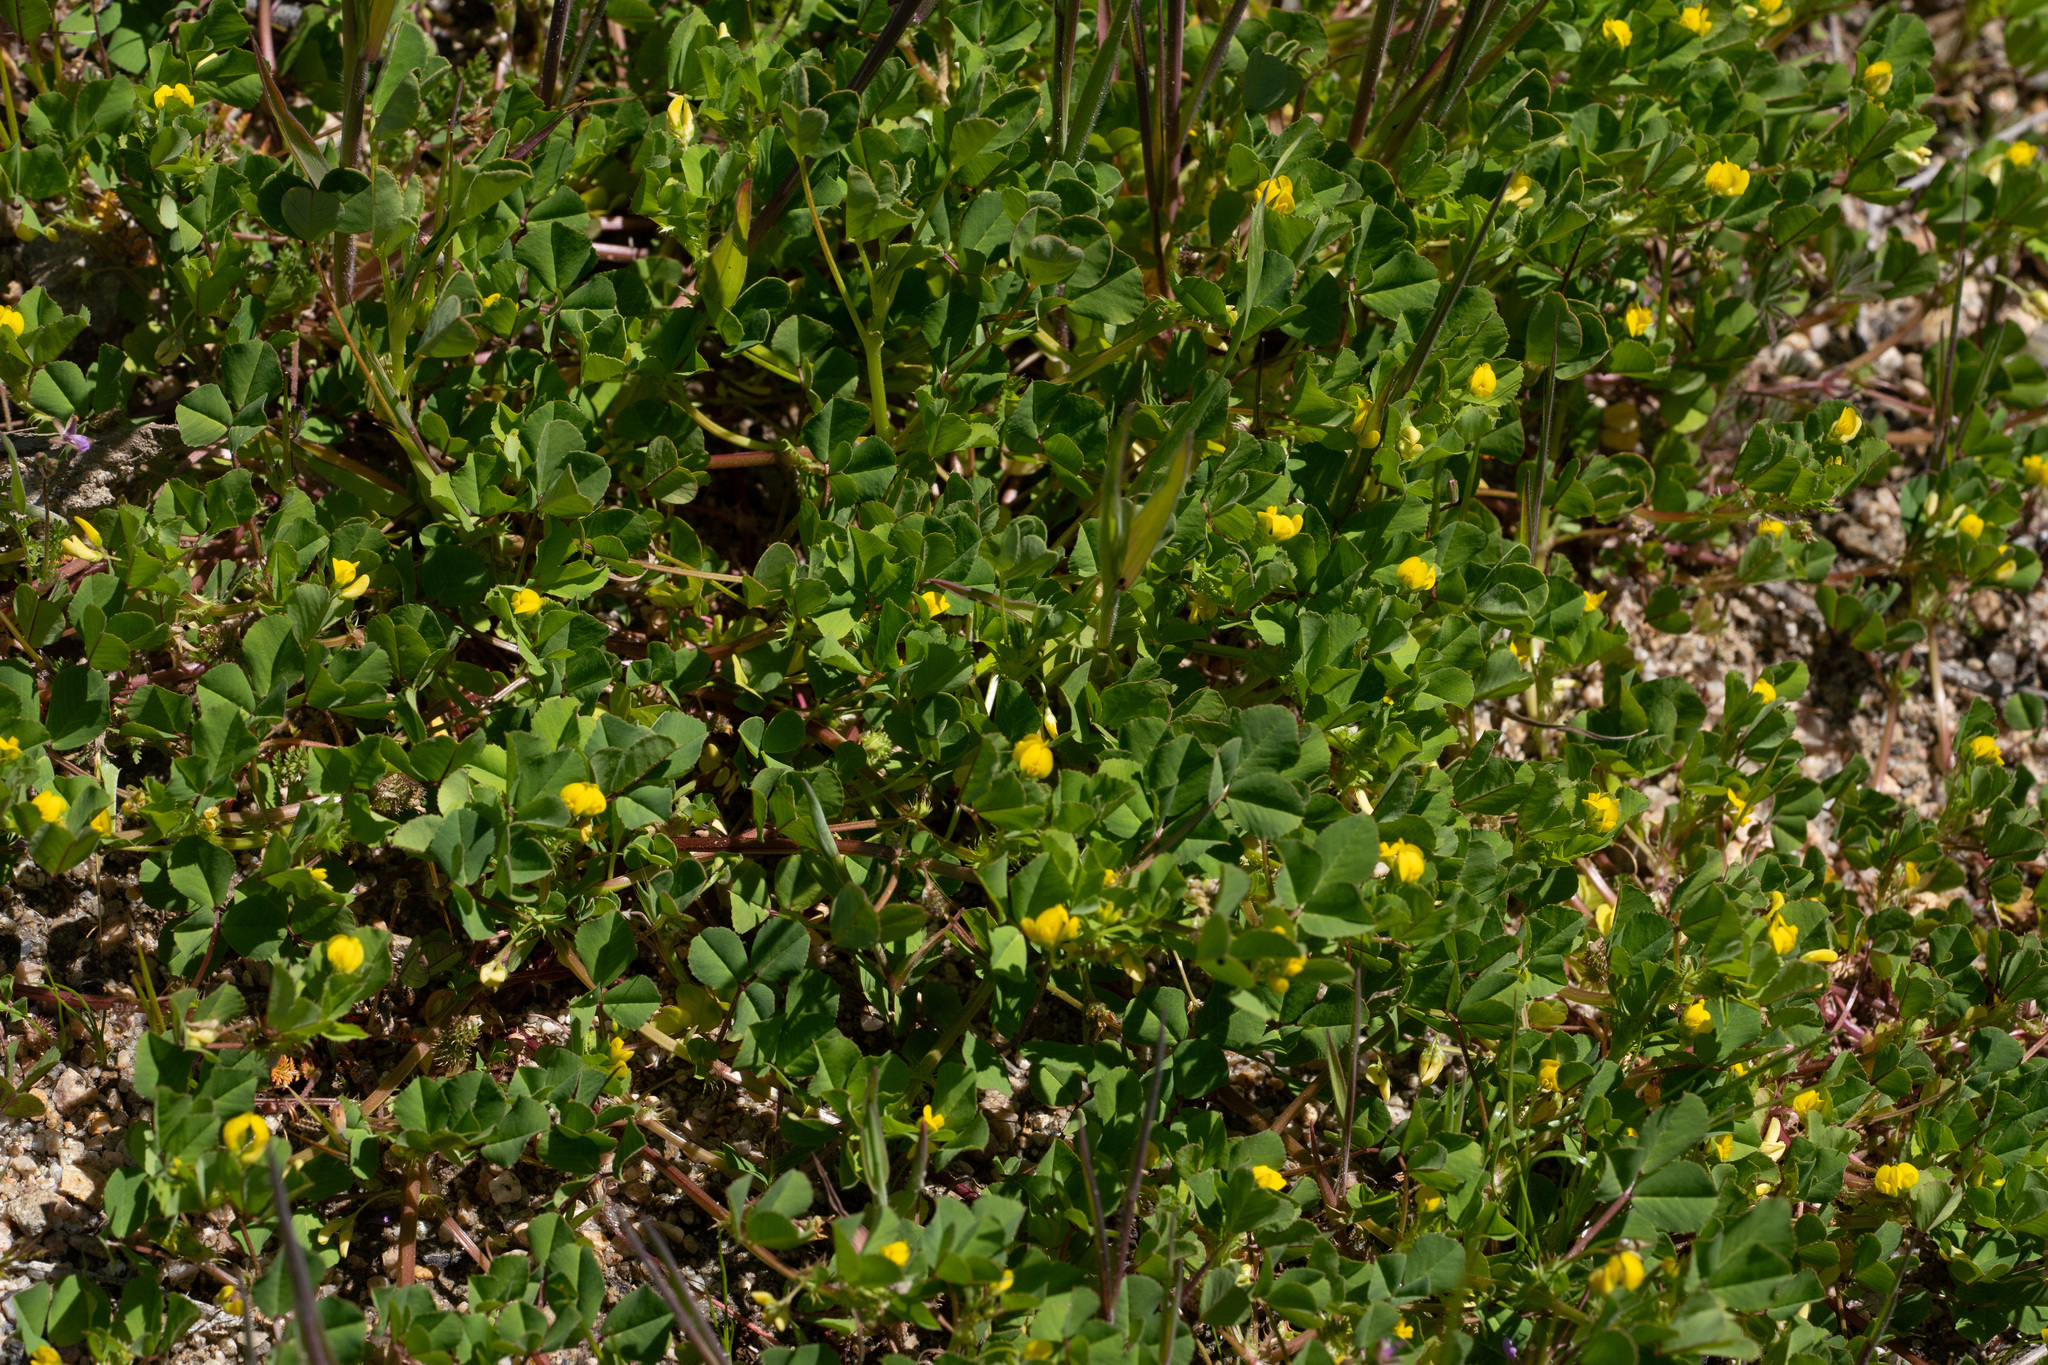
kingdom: Plantae
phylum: Tracheophyta
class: Magnoliopsida
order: Fabales
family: Fabaceae
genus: Medicago
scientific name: Medicago polymorpha
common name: Burclover
